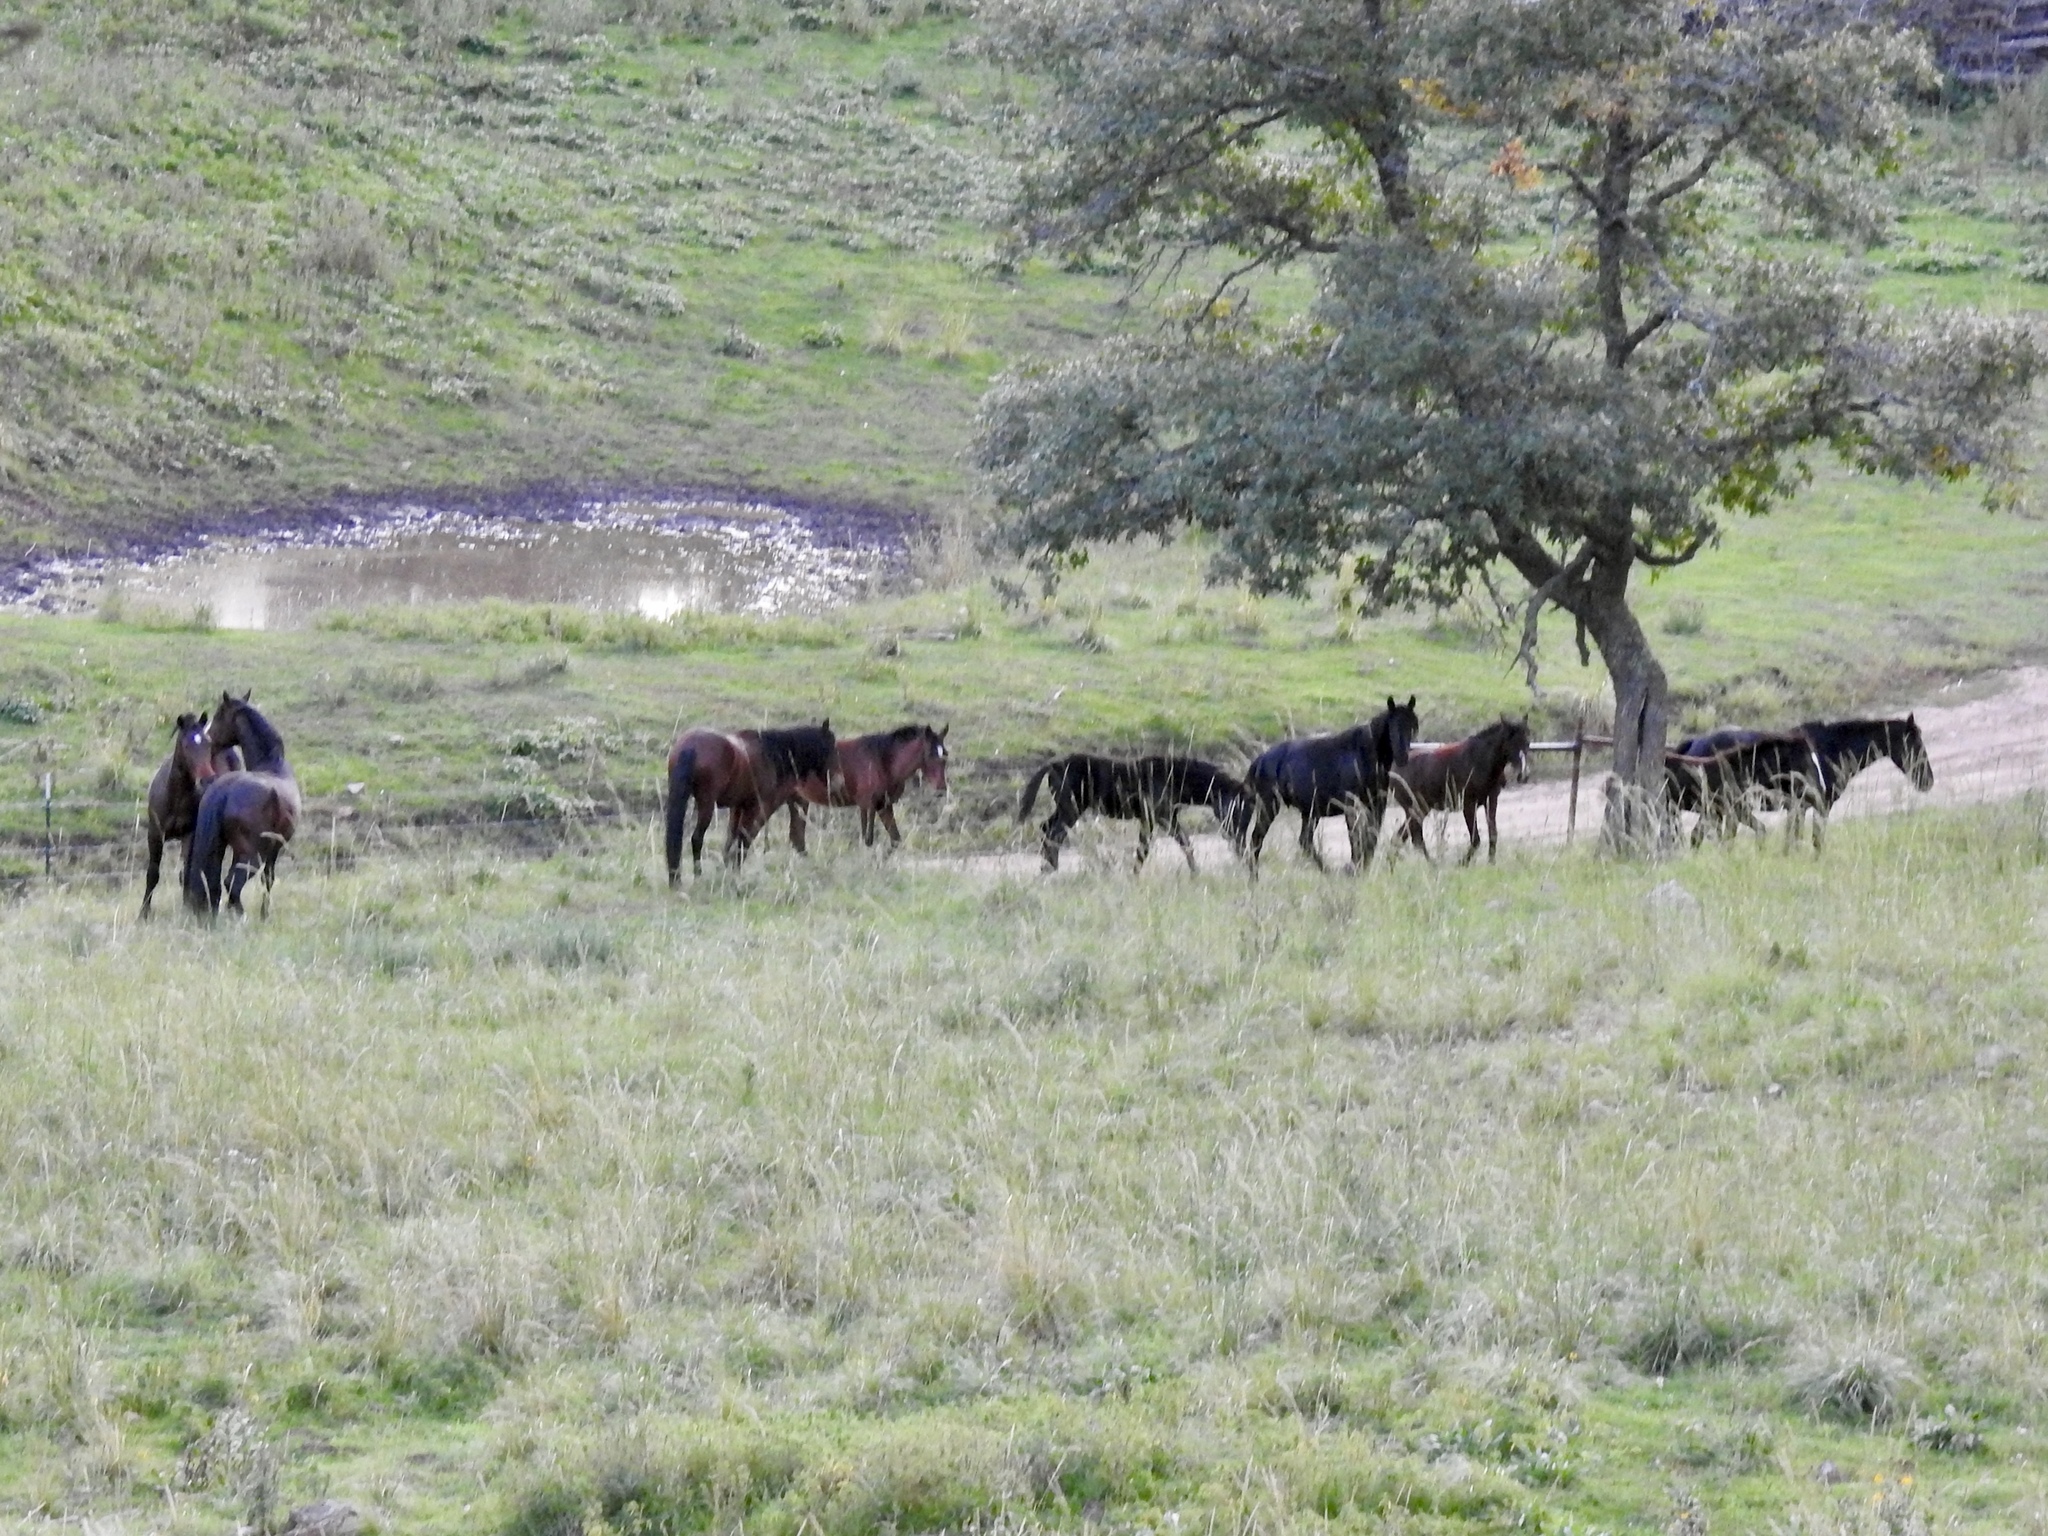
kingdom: Animalia
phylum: Chordata
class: Mammalia
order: Perissodactyla
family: Equidae
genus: Equus
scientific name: Equus caballus
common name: Horse
